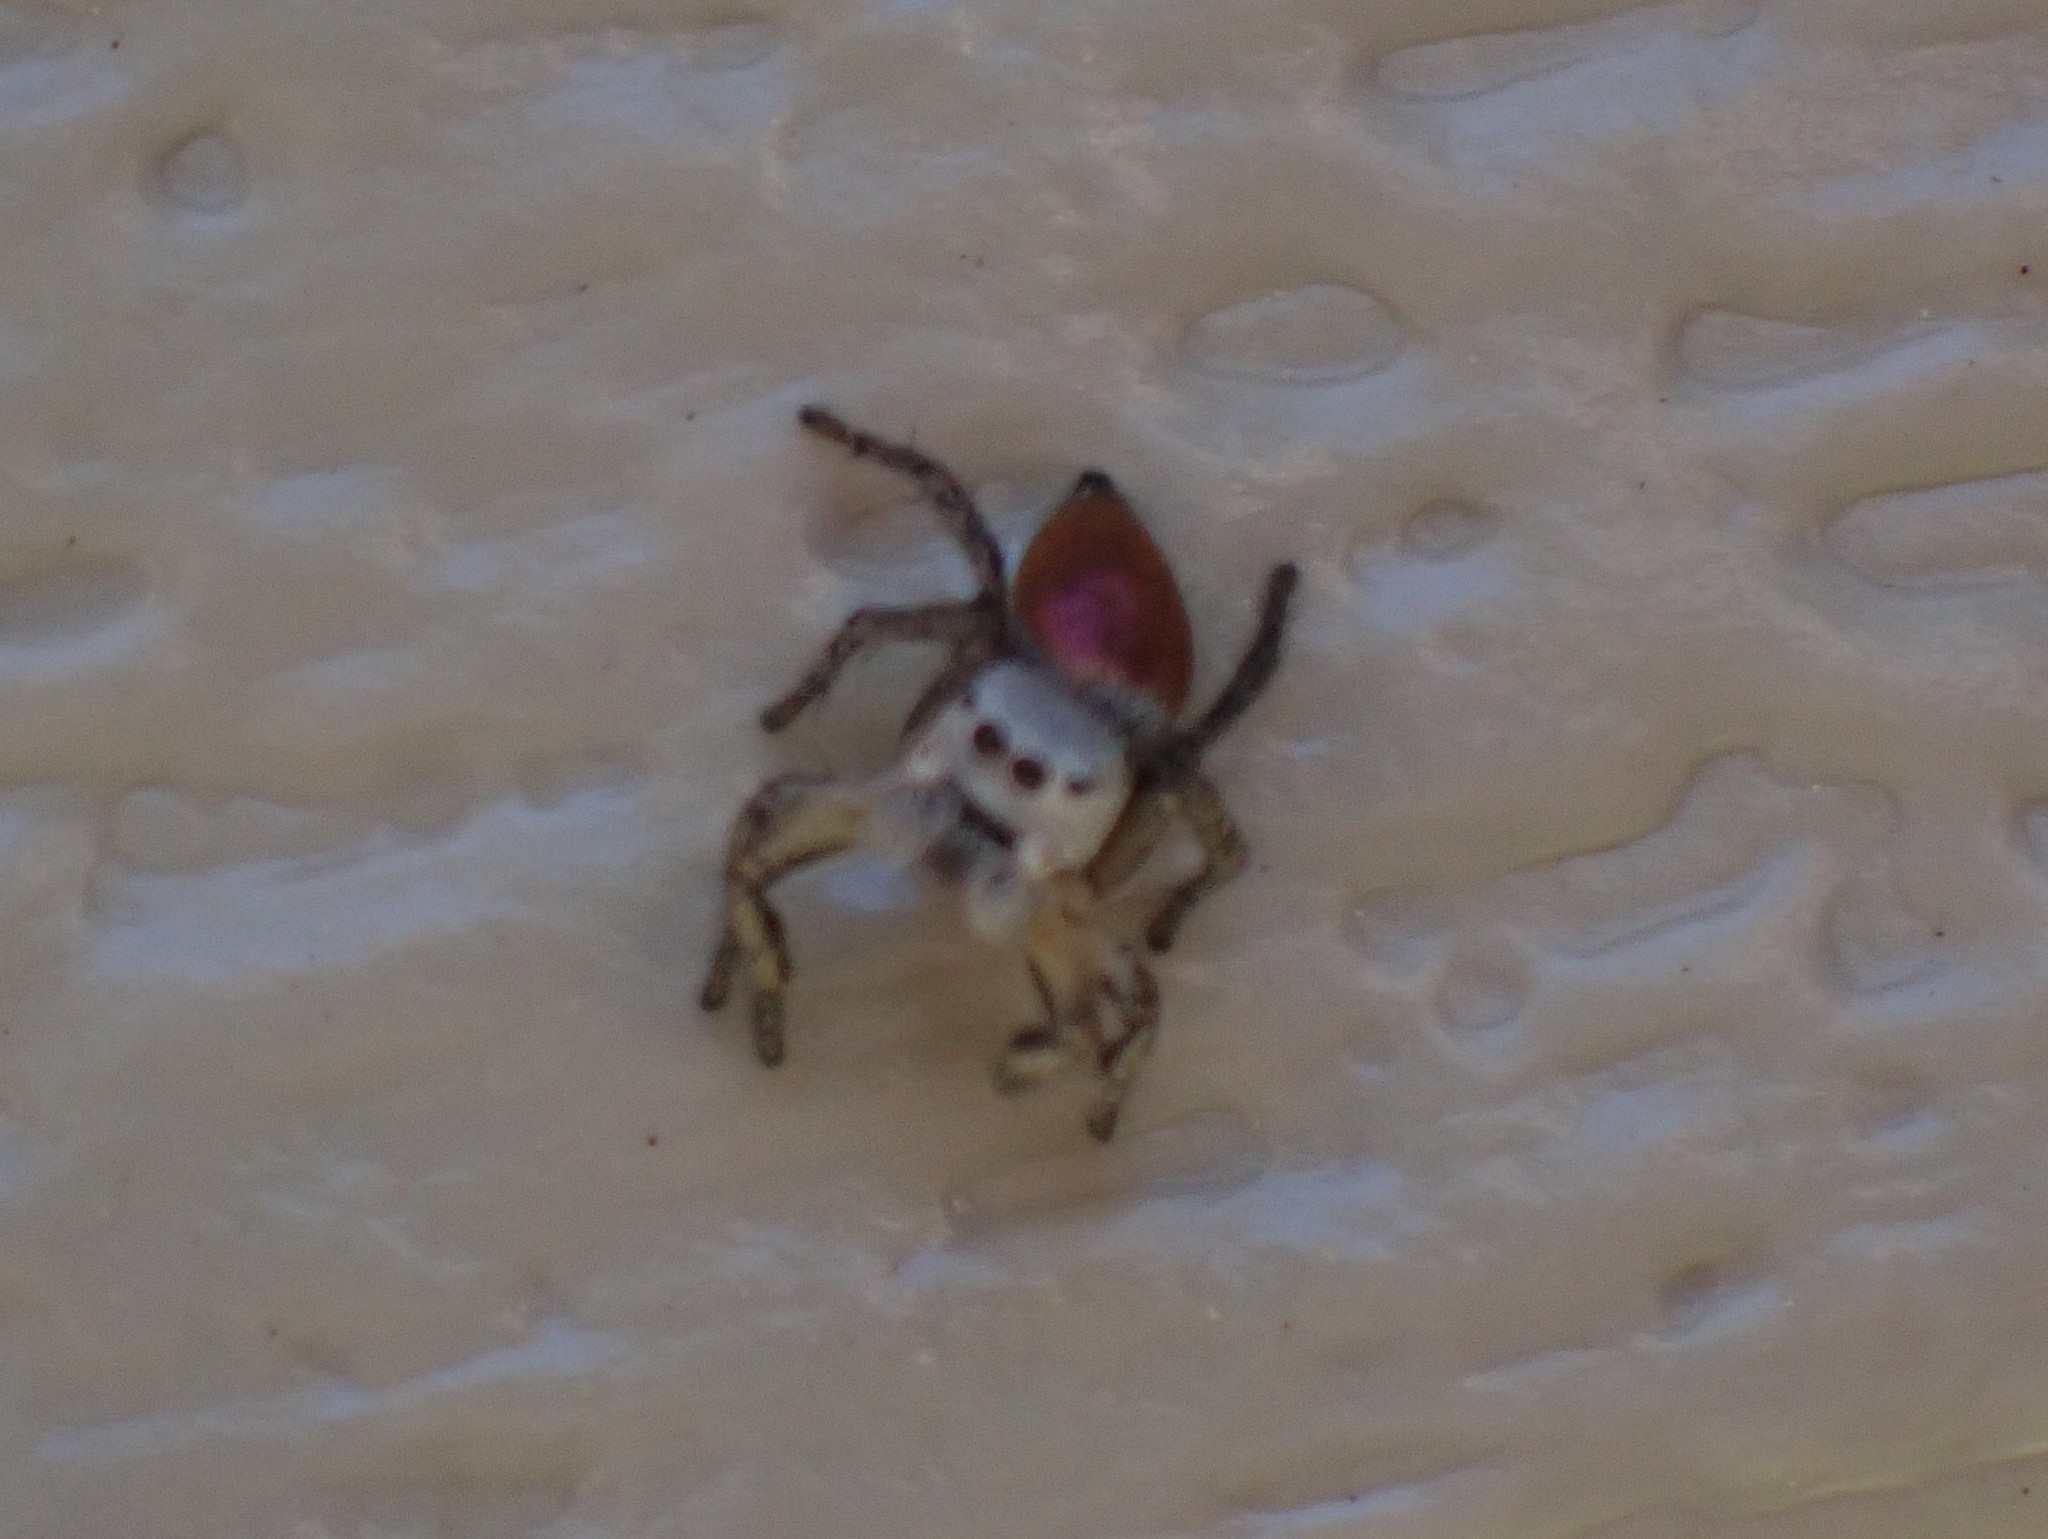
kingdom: Animalia
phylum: Arthropoda
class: Arachnida
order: Araneae
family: Salticidae
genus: Habronattus
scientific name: Habronattus decorus
